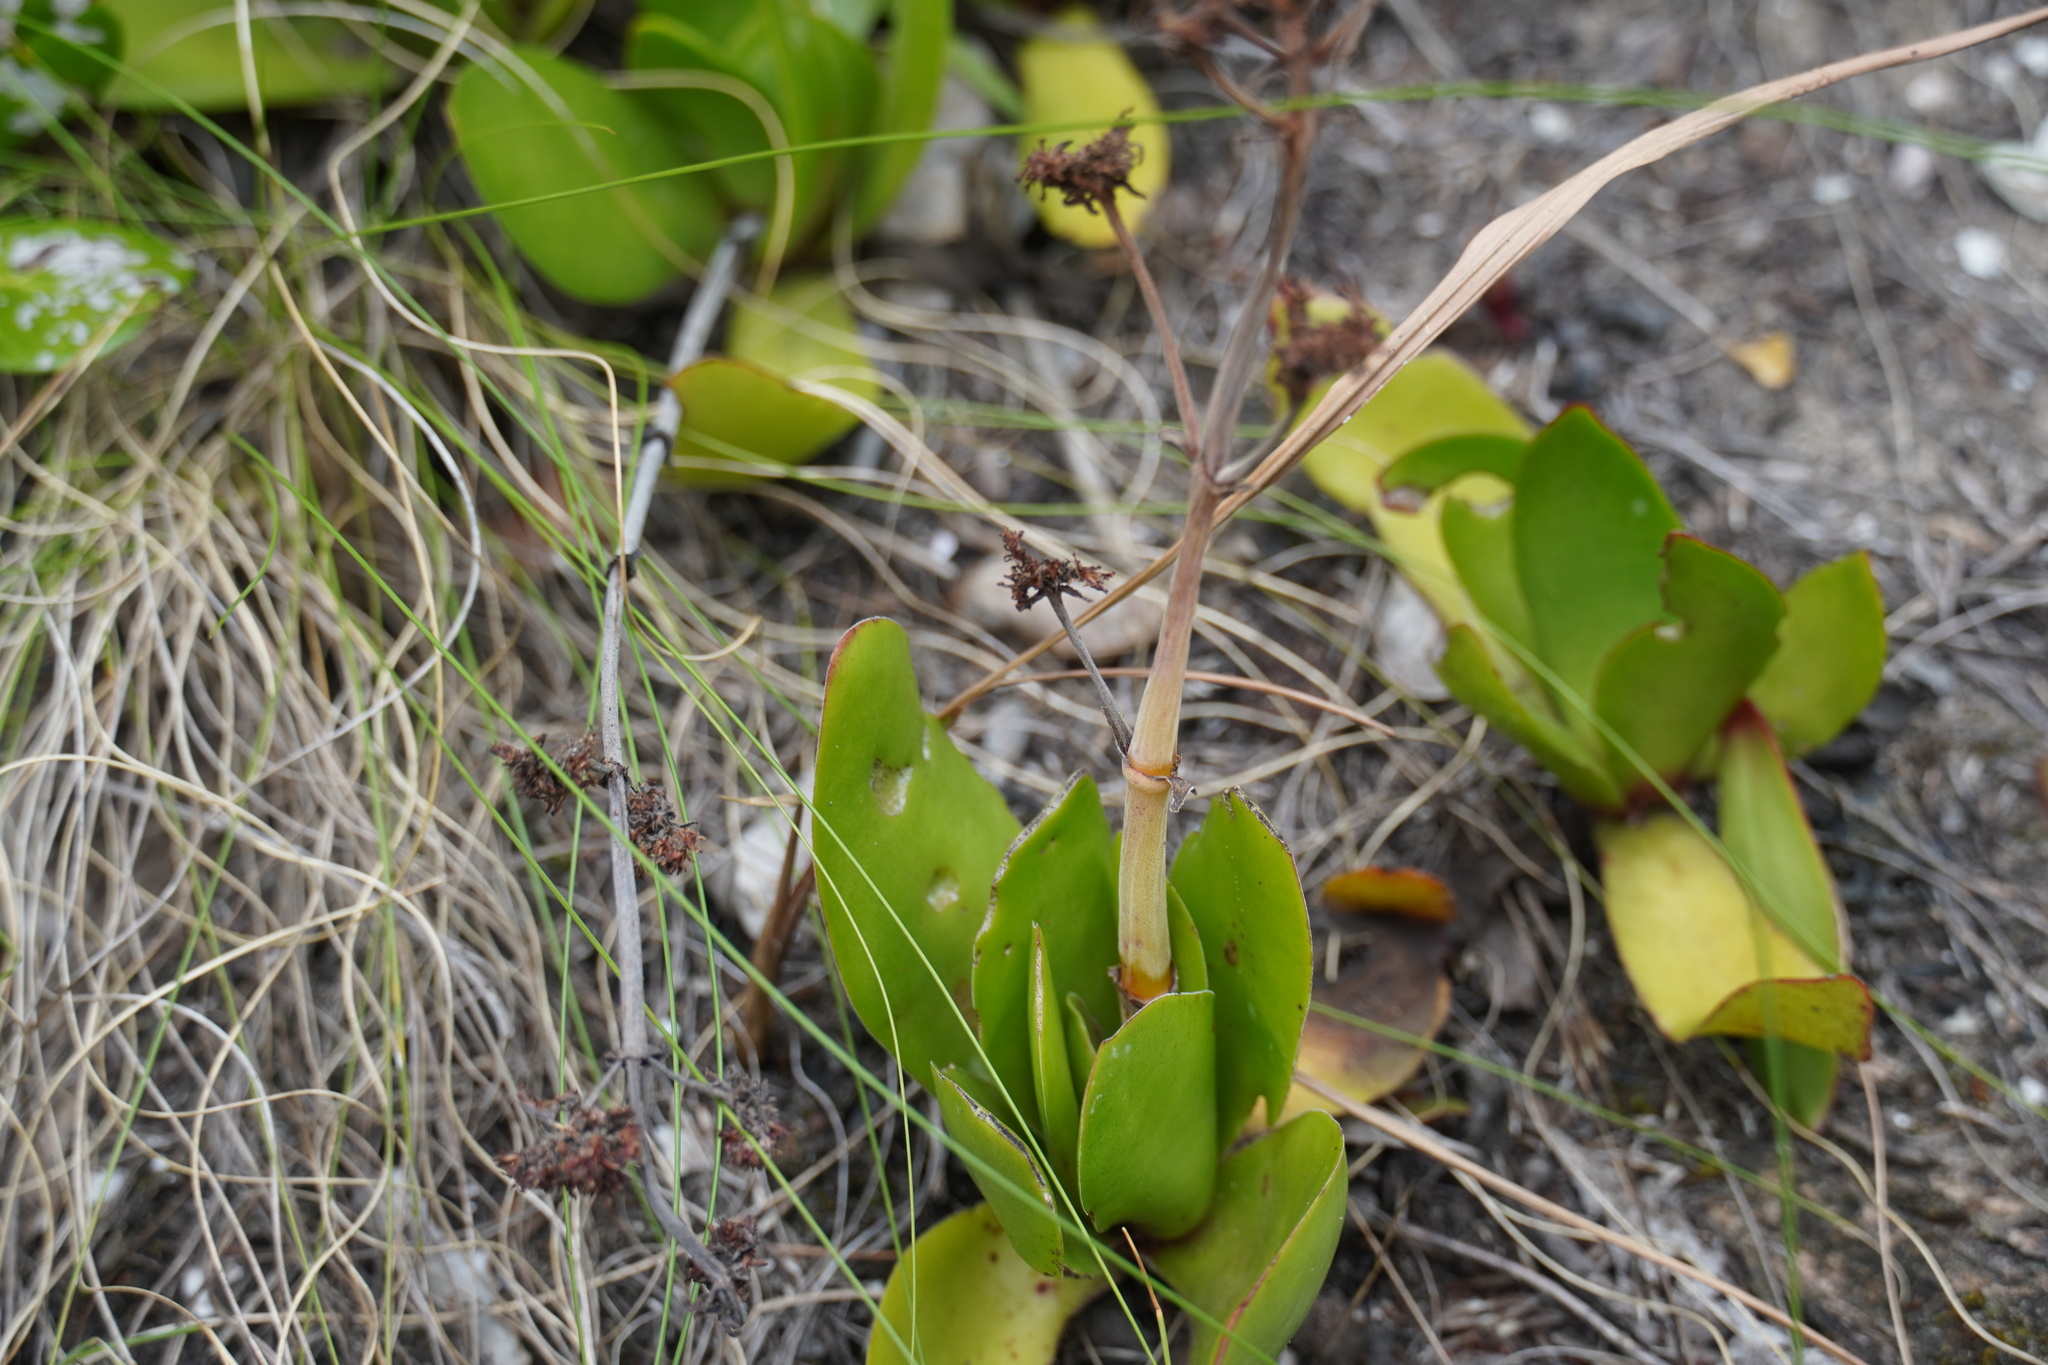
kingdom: Plantae
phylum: Tracheophyta
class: Magnoliopsida
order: Saxifragales
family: Crassulaceae
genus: Crassula
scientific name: Crassula nudicaulis
